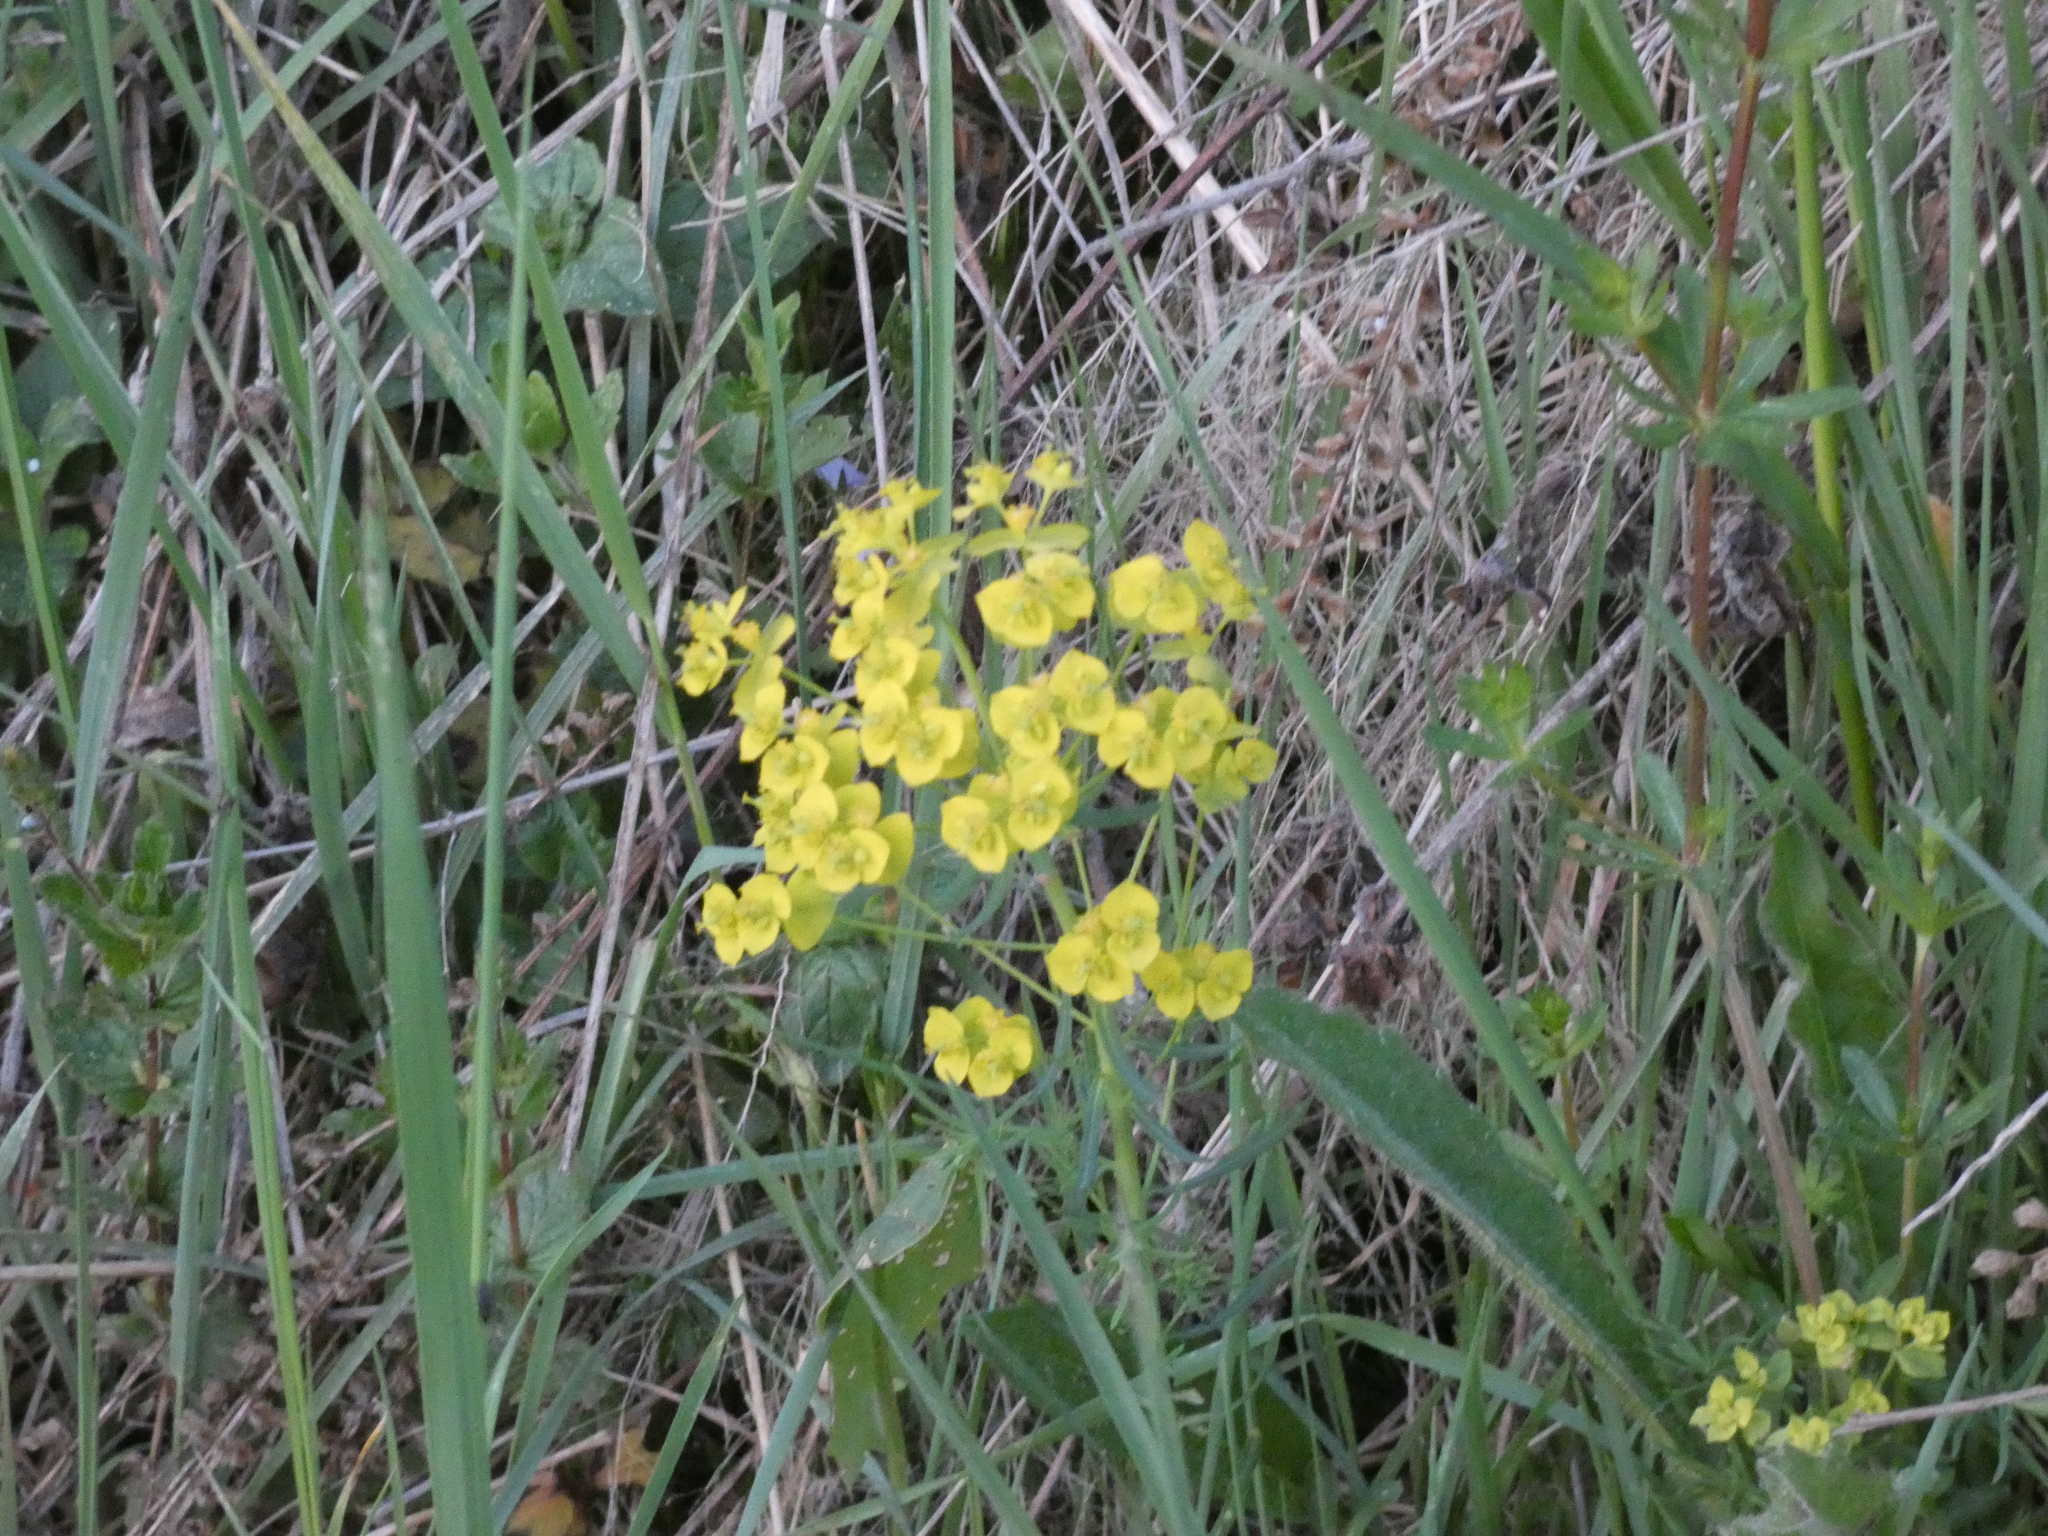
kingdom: Plantae
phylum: Tracheophyta
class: Magnoliopsida
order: Malpighiales
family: Euphorbiaceae
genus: Euphorbia
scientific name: Euphorbia cyparissias
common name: Cypress spurge
